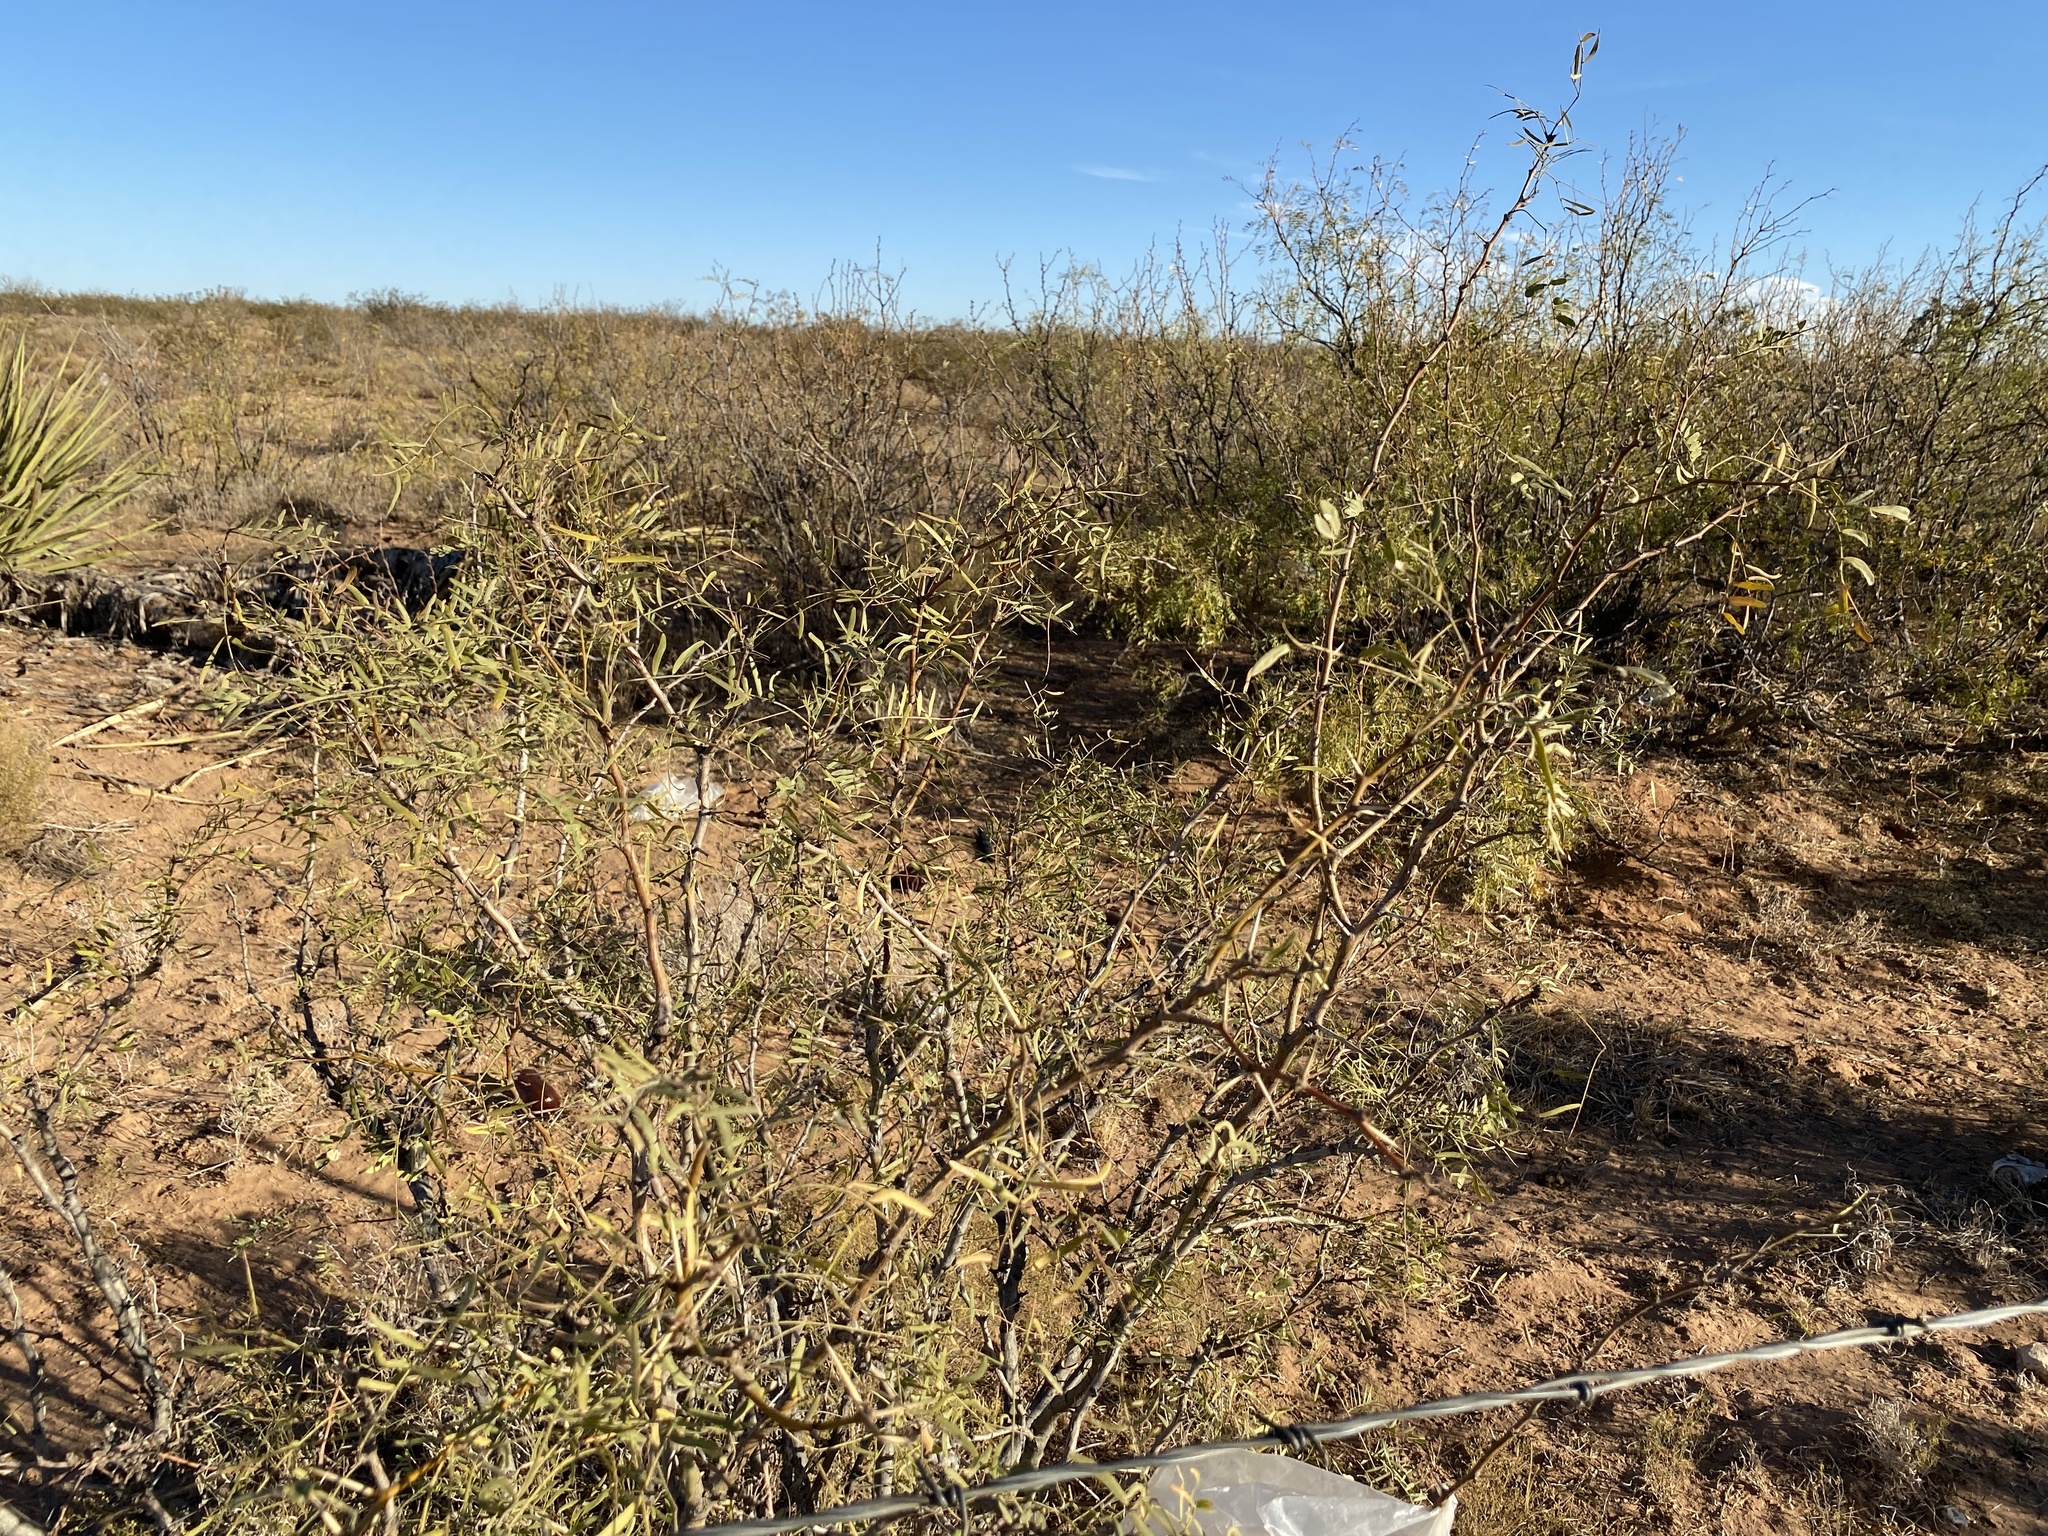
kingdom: Plantae
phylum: Tracheophyta
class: Magnoliopsida
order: Fabales
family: Fabaceae
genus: Prosopis
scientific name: Prosopis glandulosa
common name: Honey mesquite
